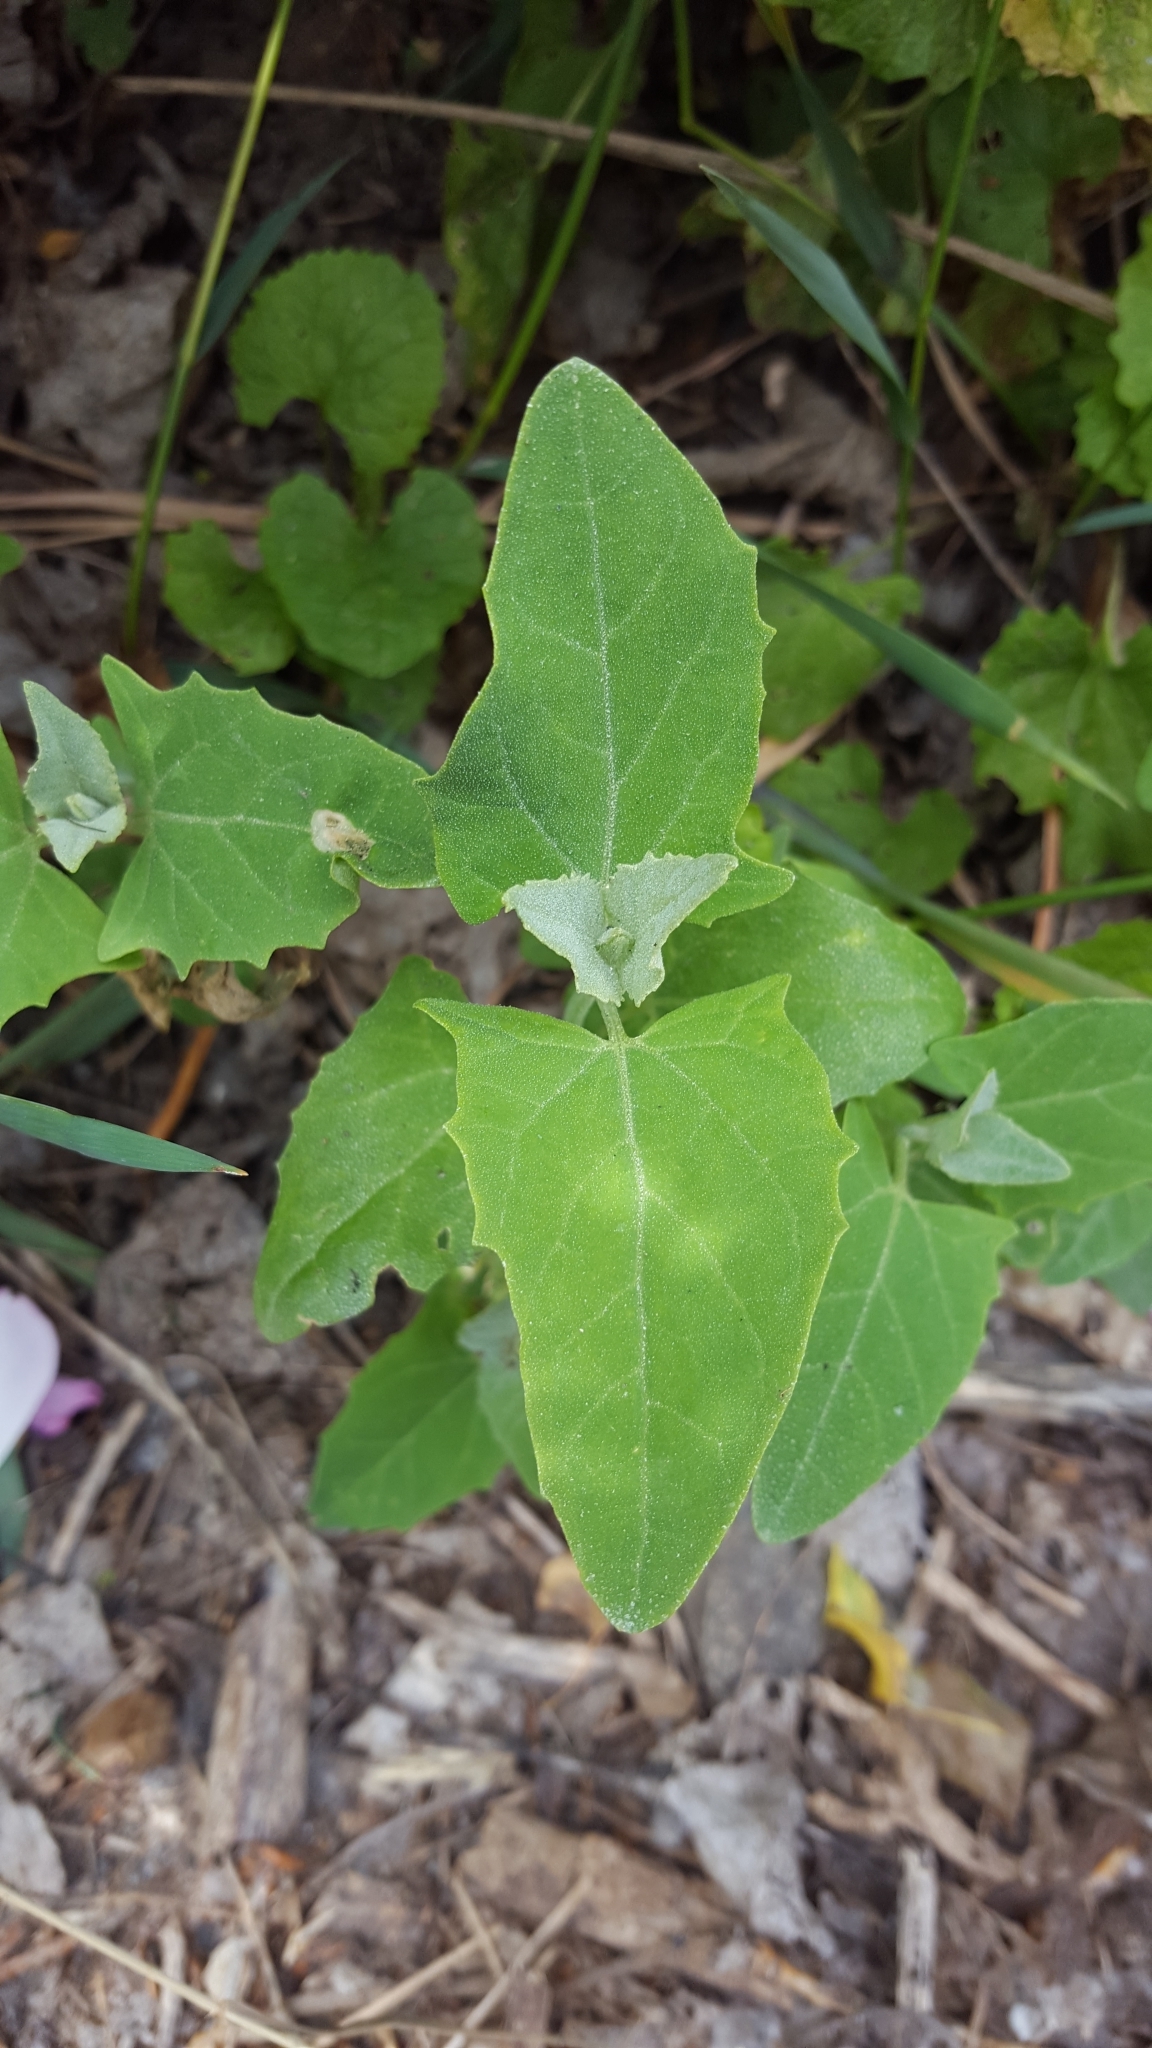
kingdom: Plantae
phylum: Tracheophyta
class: Magnoliopsida
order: Caryophyllales
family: Amaranthaceae
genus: Chenopodium
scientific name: Chenopodium album
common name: Fat-hen
